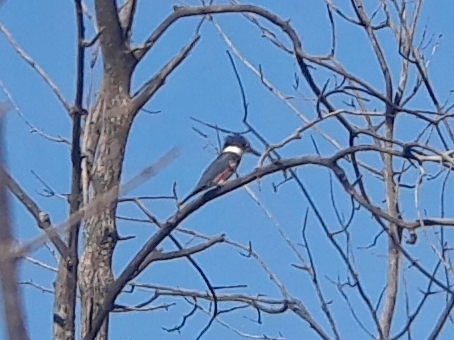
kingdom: Animalia
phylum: Chordata
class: Aves
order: Coraciiformes
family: Alcedinidae
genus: Megaceryle
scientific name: Megaceryle alcyon
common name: Belted kingfisher
